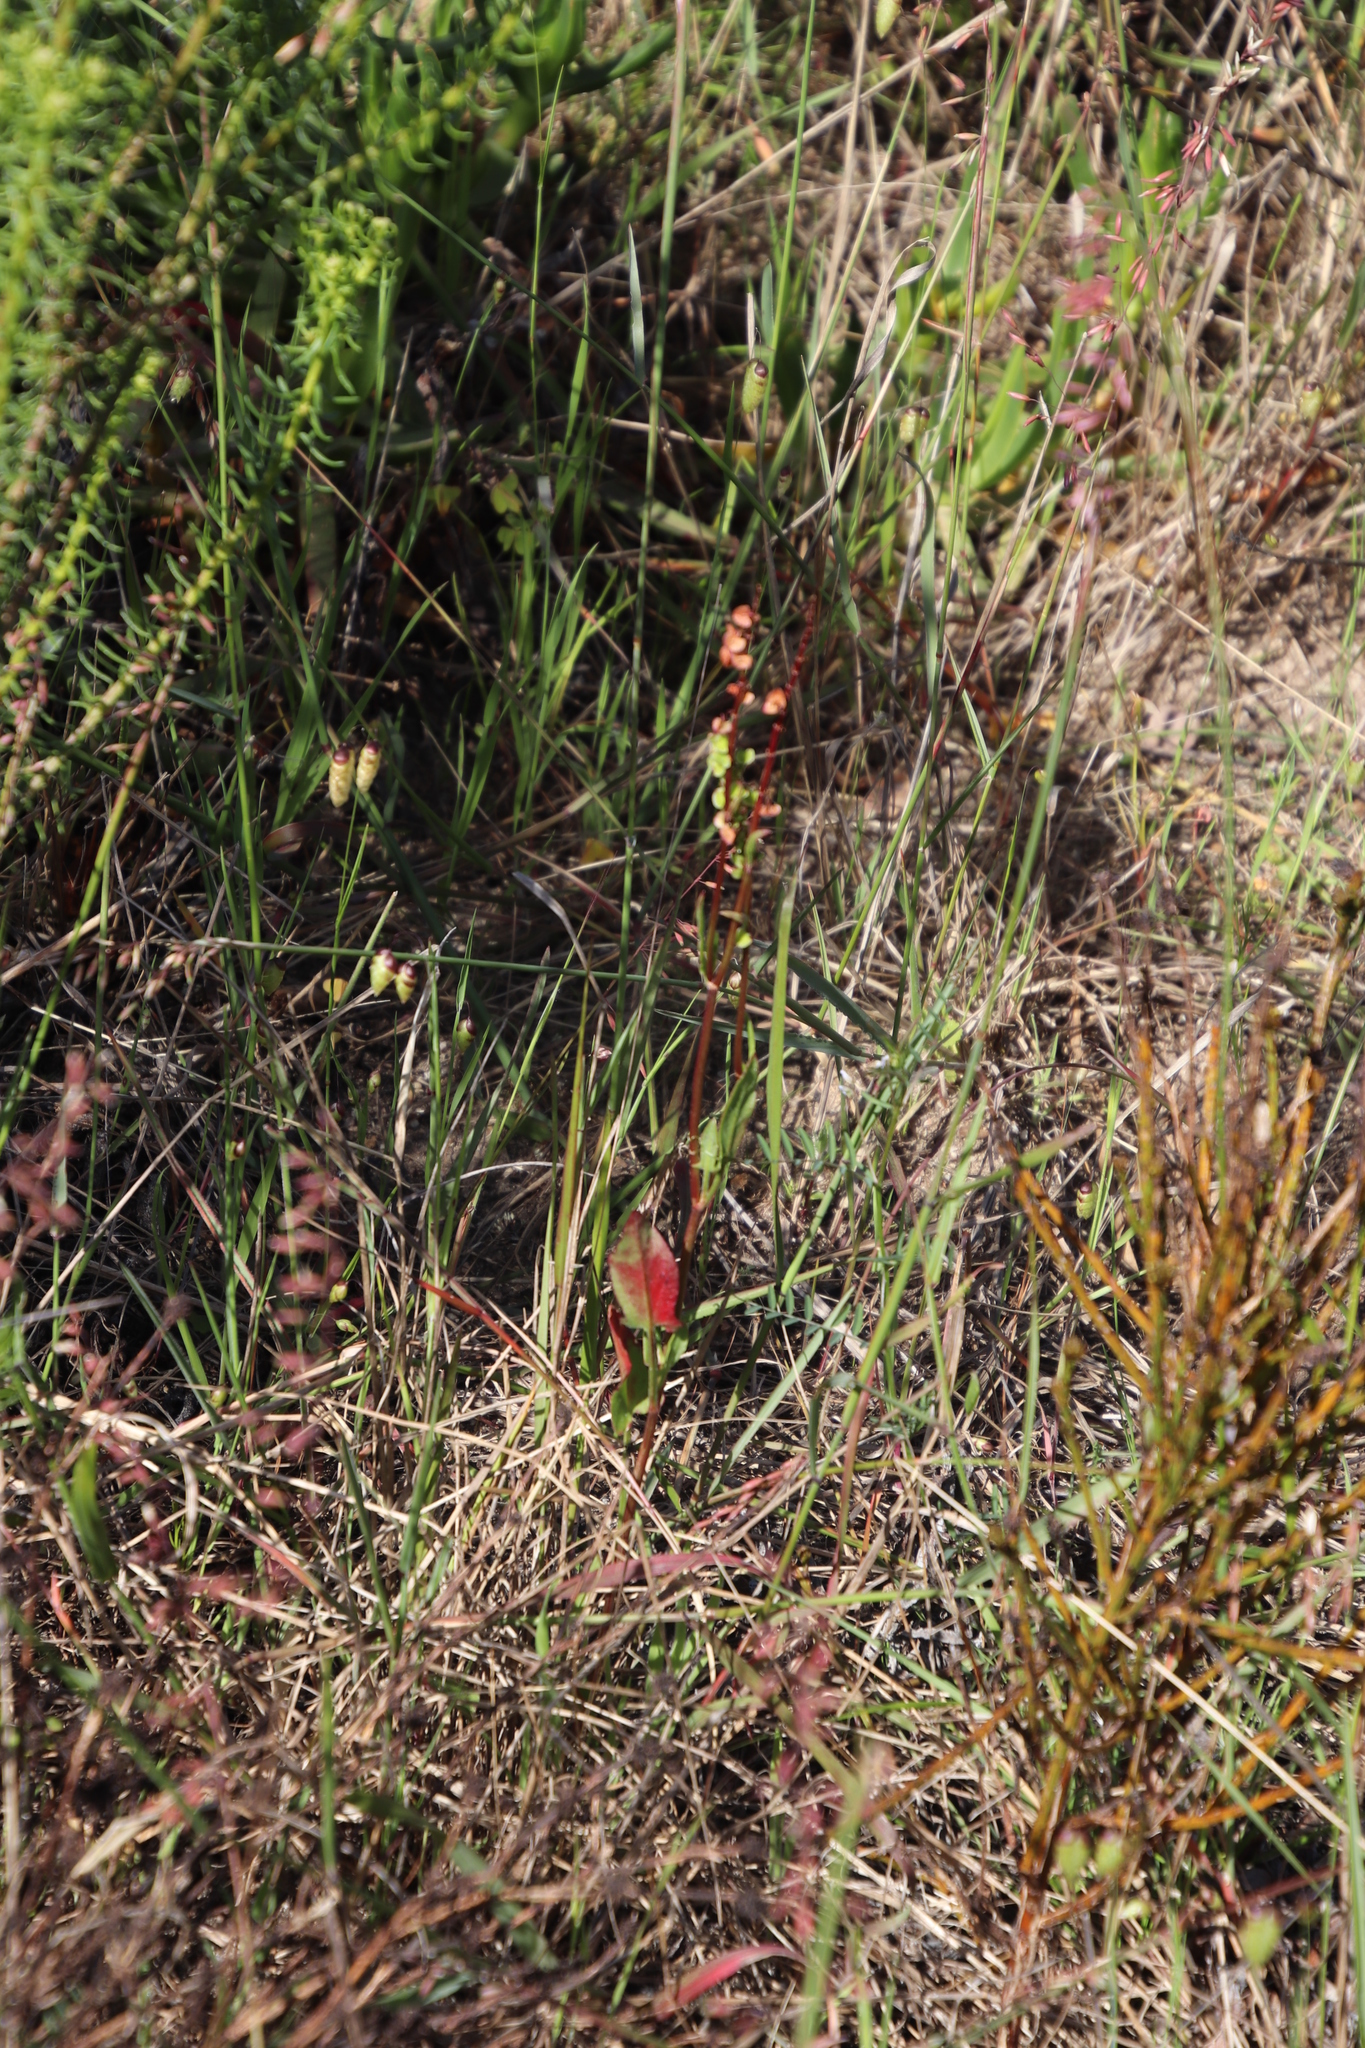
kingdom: Plantae
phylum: Tracheophyta
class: Magnoliopsida
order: Caryophyllales
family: Polygonaceae
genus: Rumex
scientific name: Rumex lativalvis
